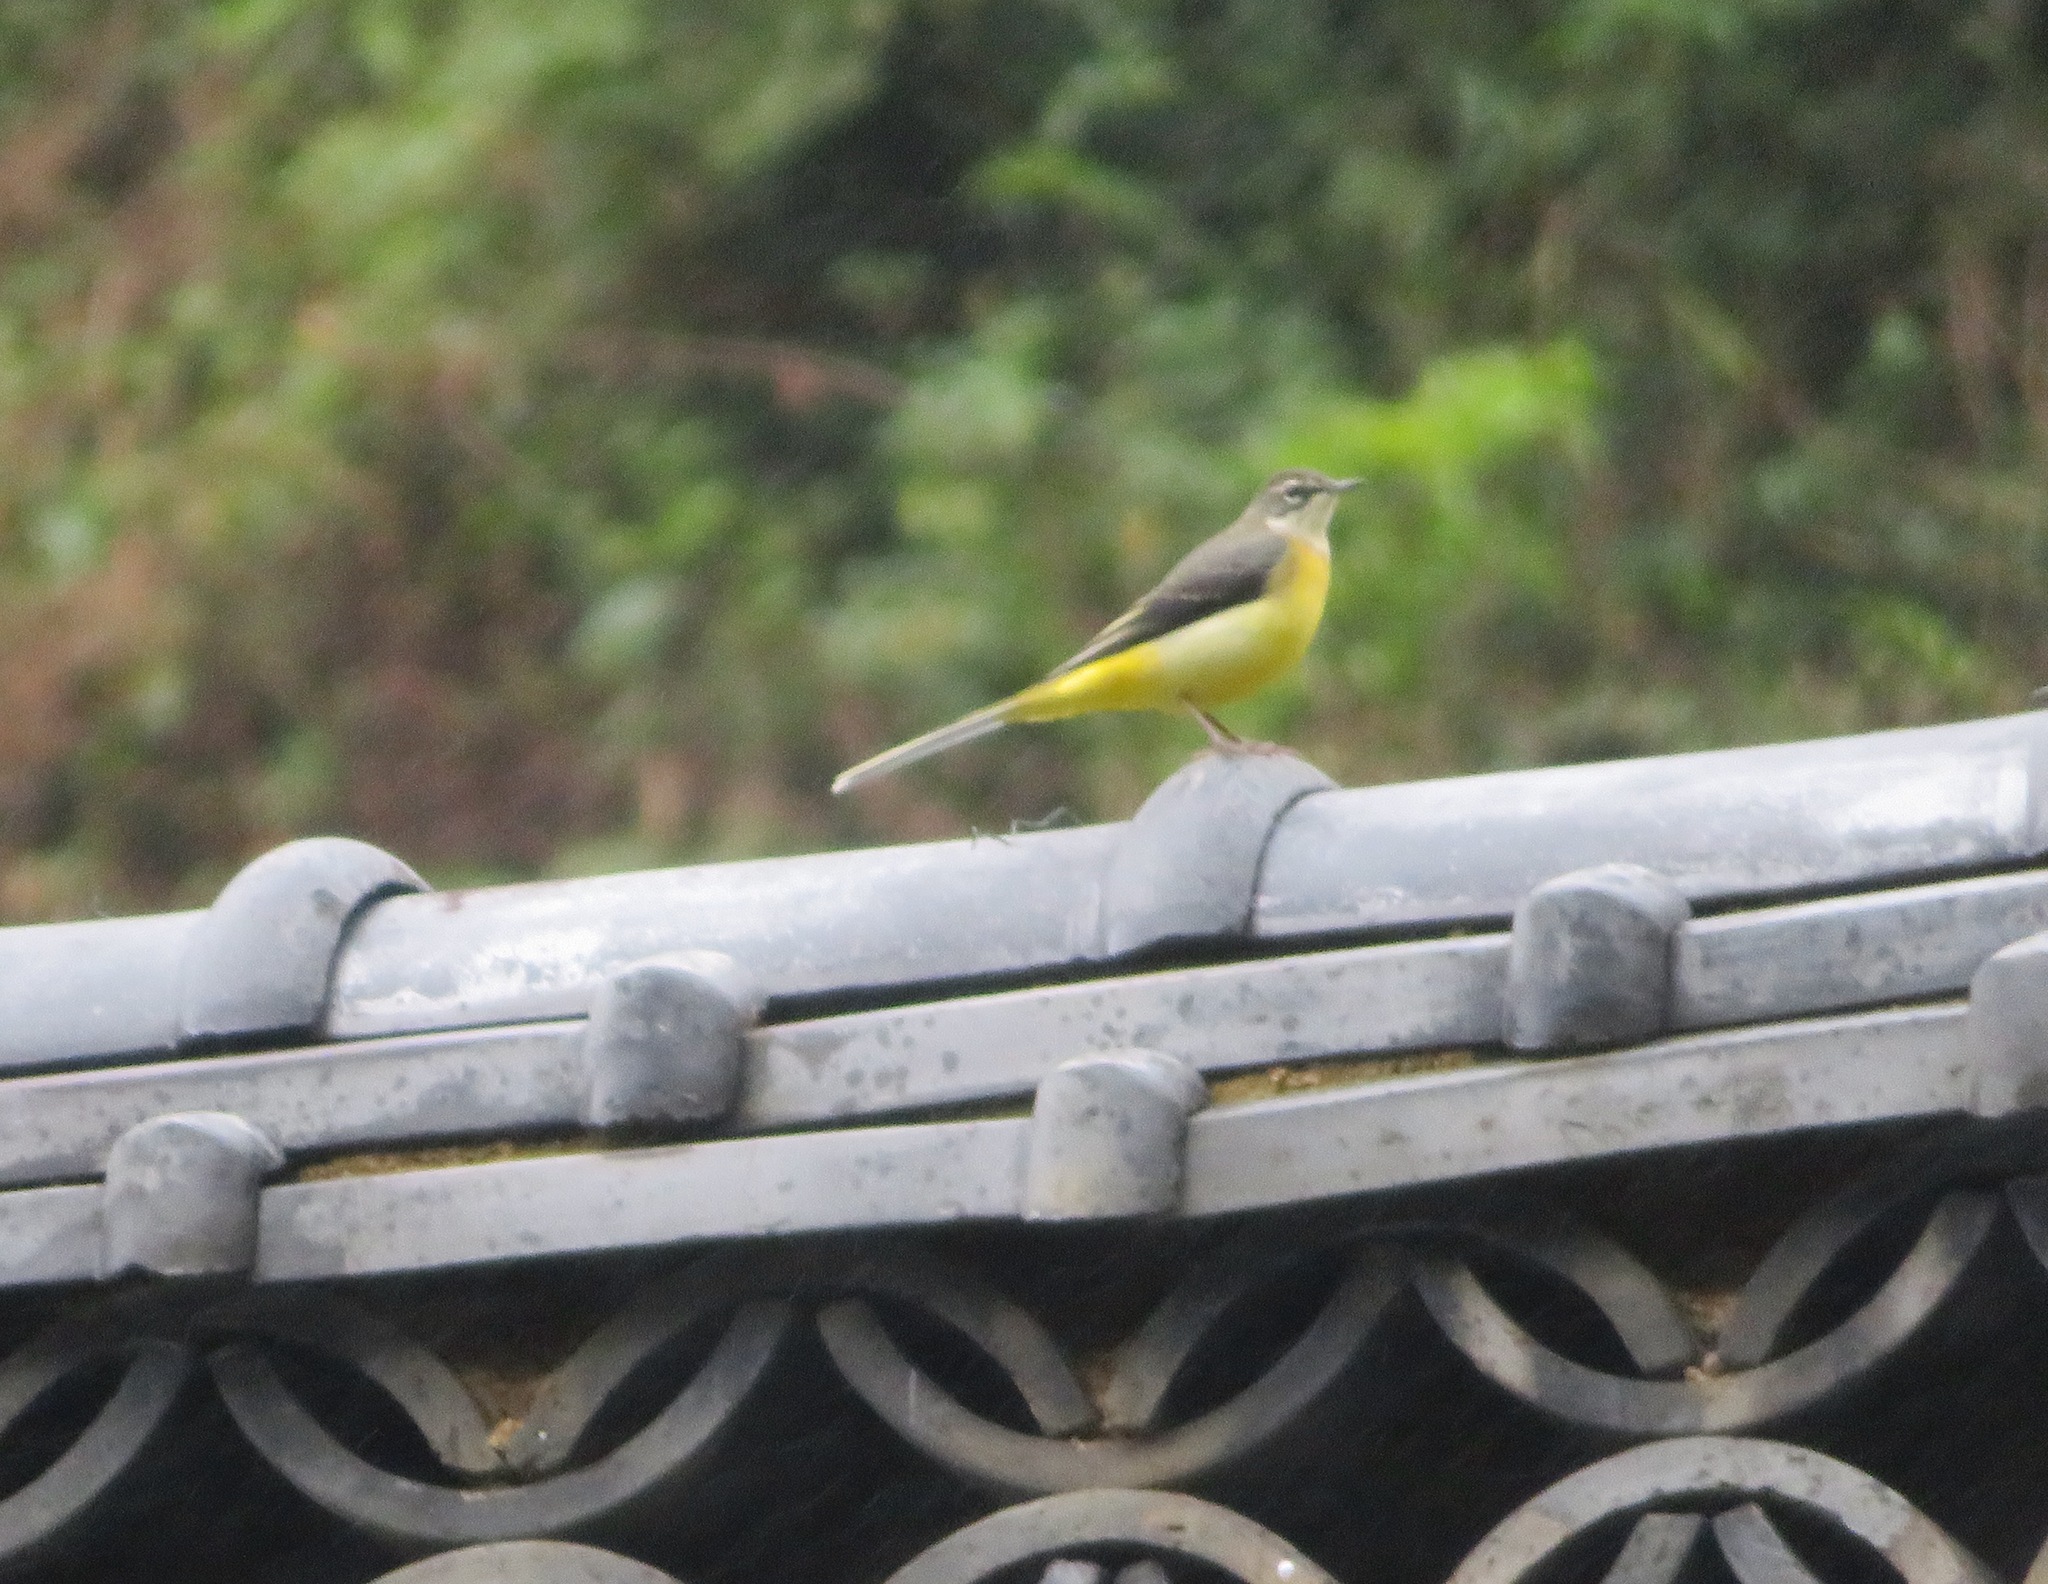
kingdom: Animalia
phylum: Chordata
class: Aves
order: Passeriformes
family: Motacillidae
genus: Motacilla
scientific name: Motacilla cinerea
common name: Grey wagtail
